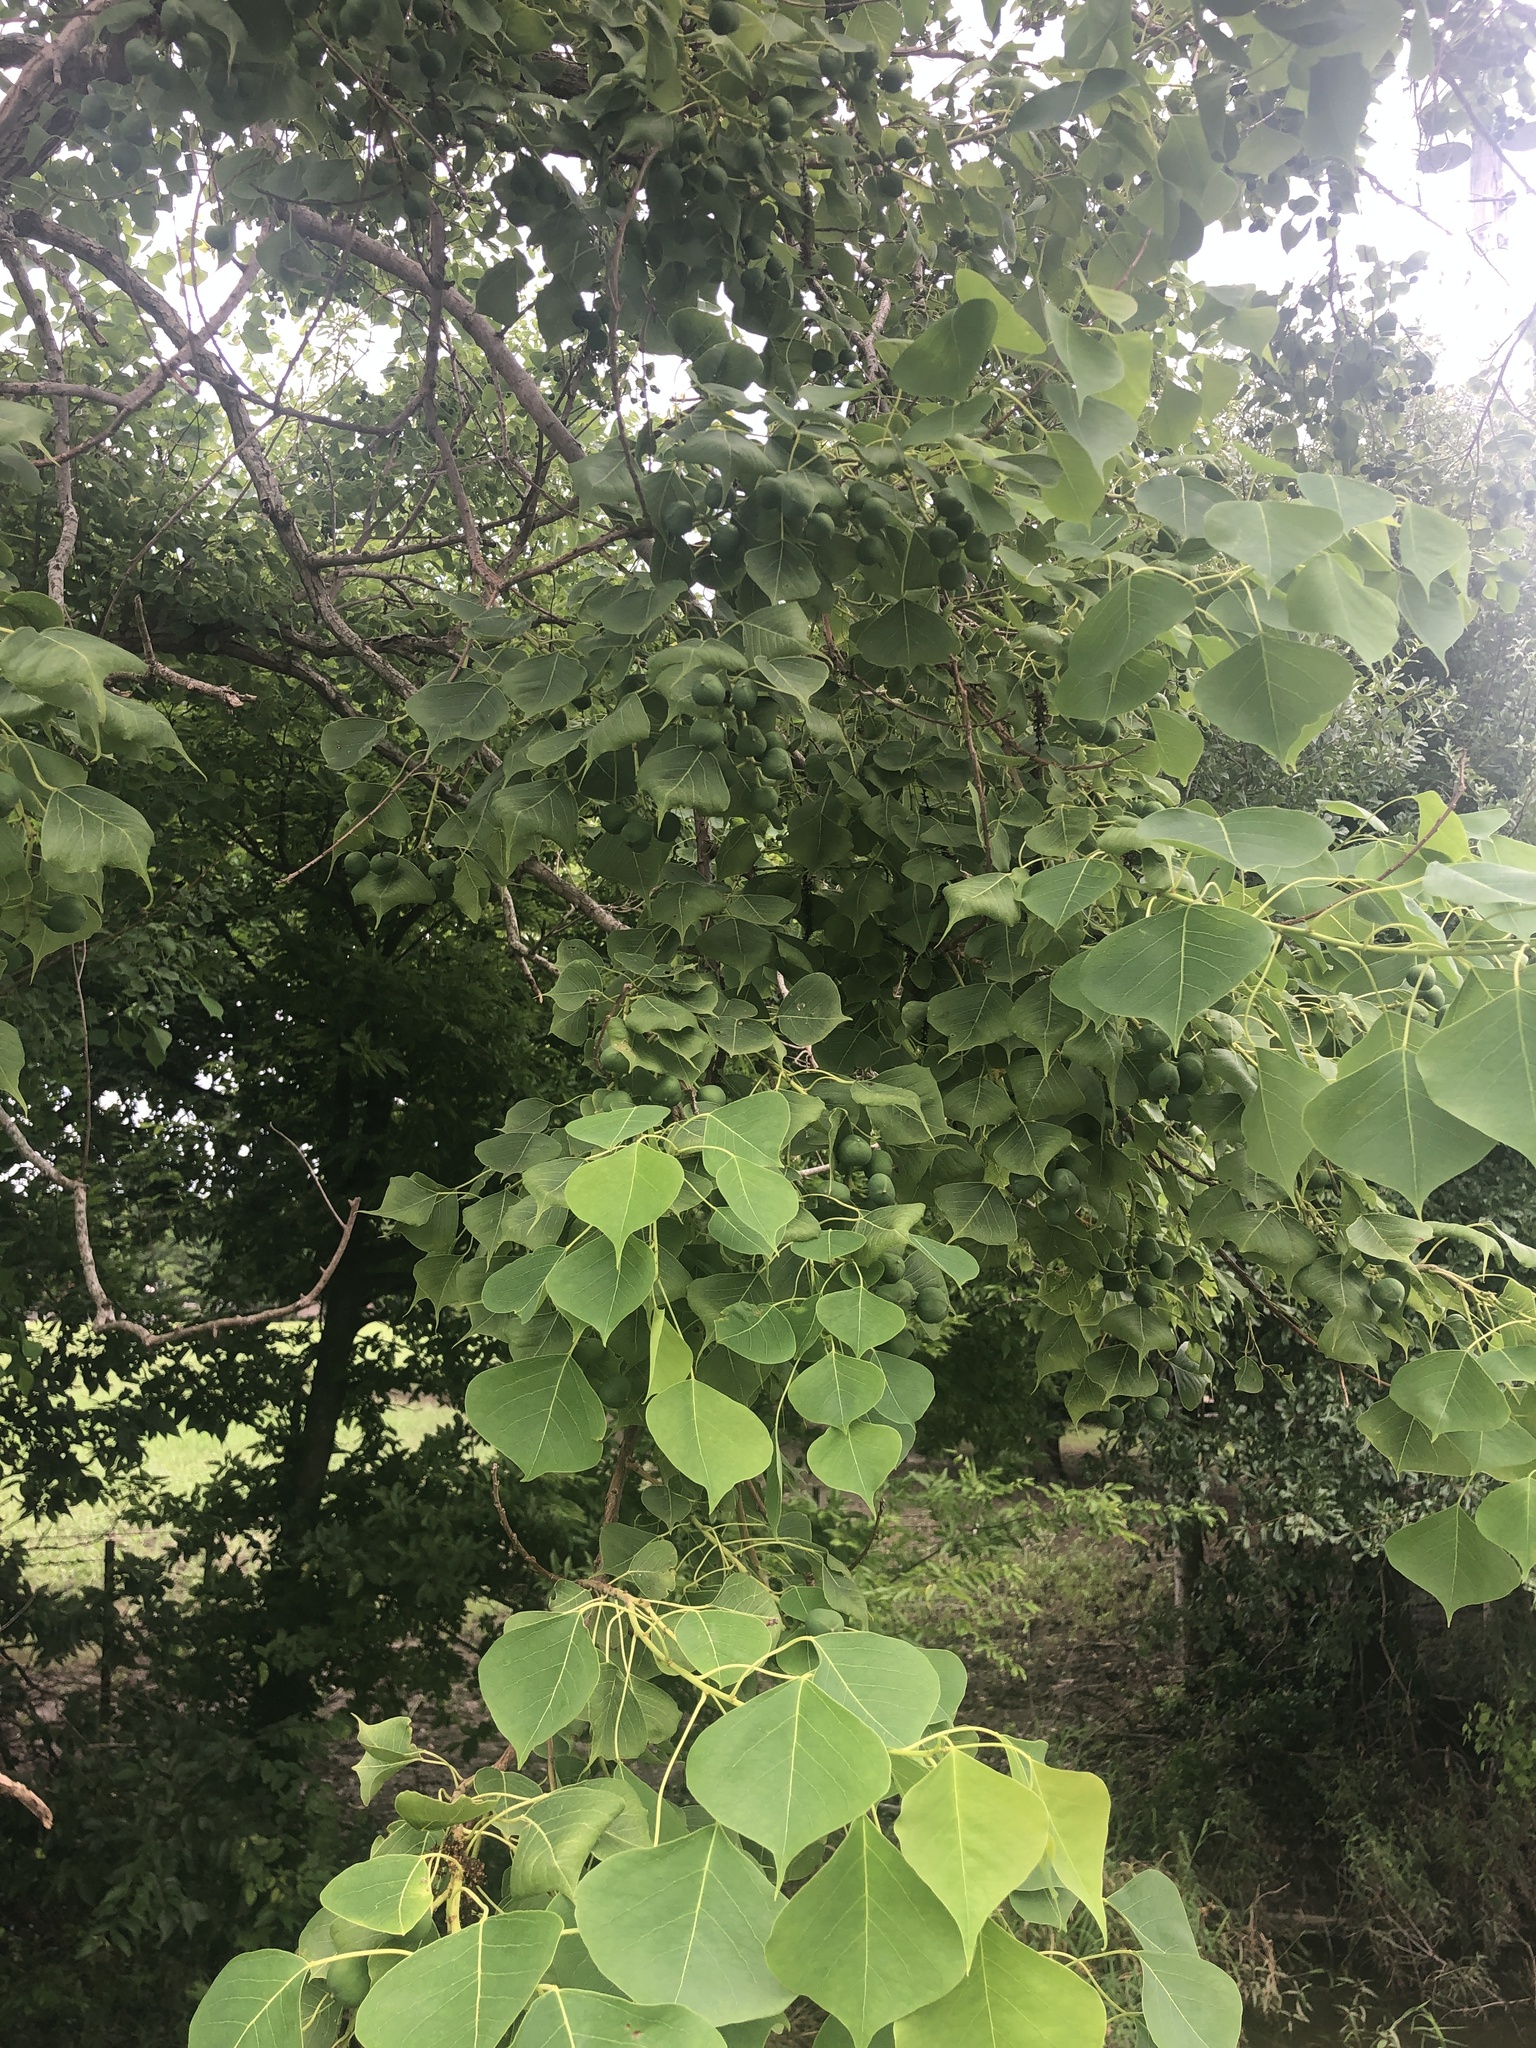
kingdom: Plantae
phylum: Tracheophyta
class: Magnoliopsida
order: Malpighiales
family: Euphorbiaceae
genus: Triadica
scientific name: Triadica sebifera
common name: Chinese tallow
